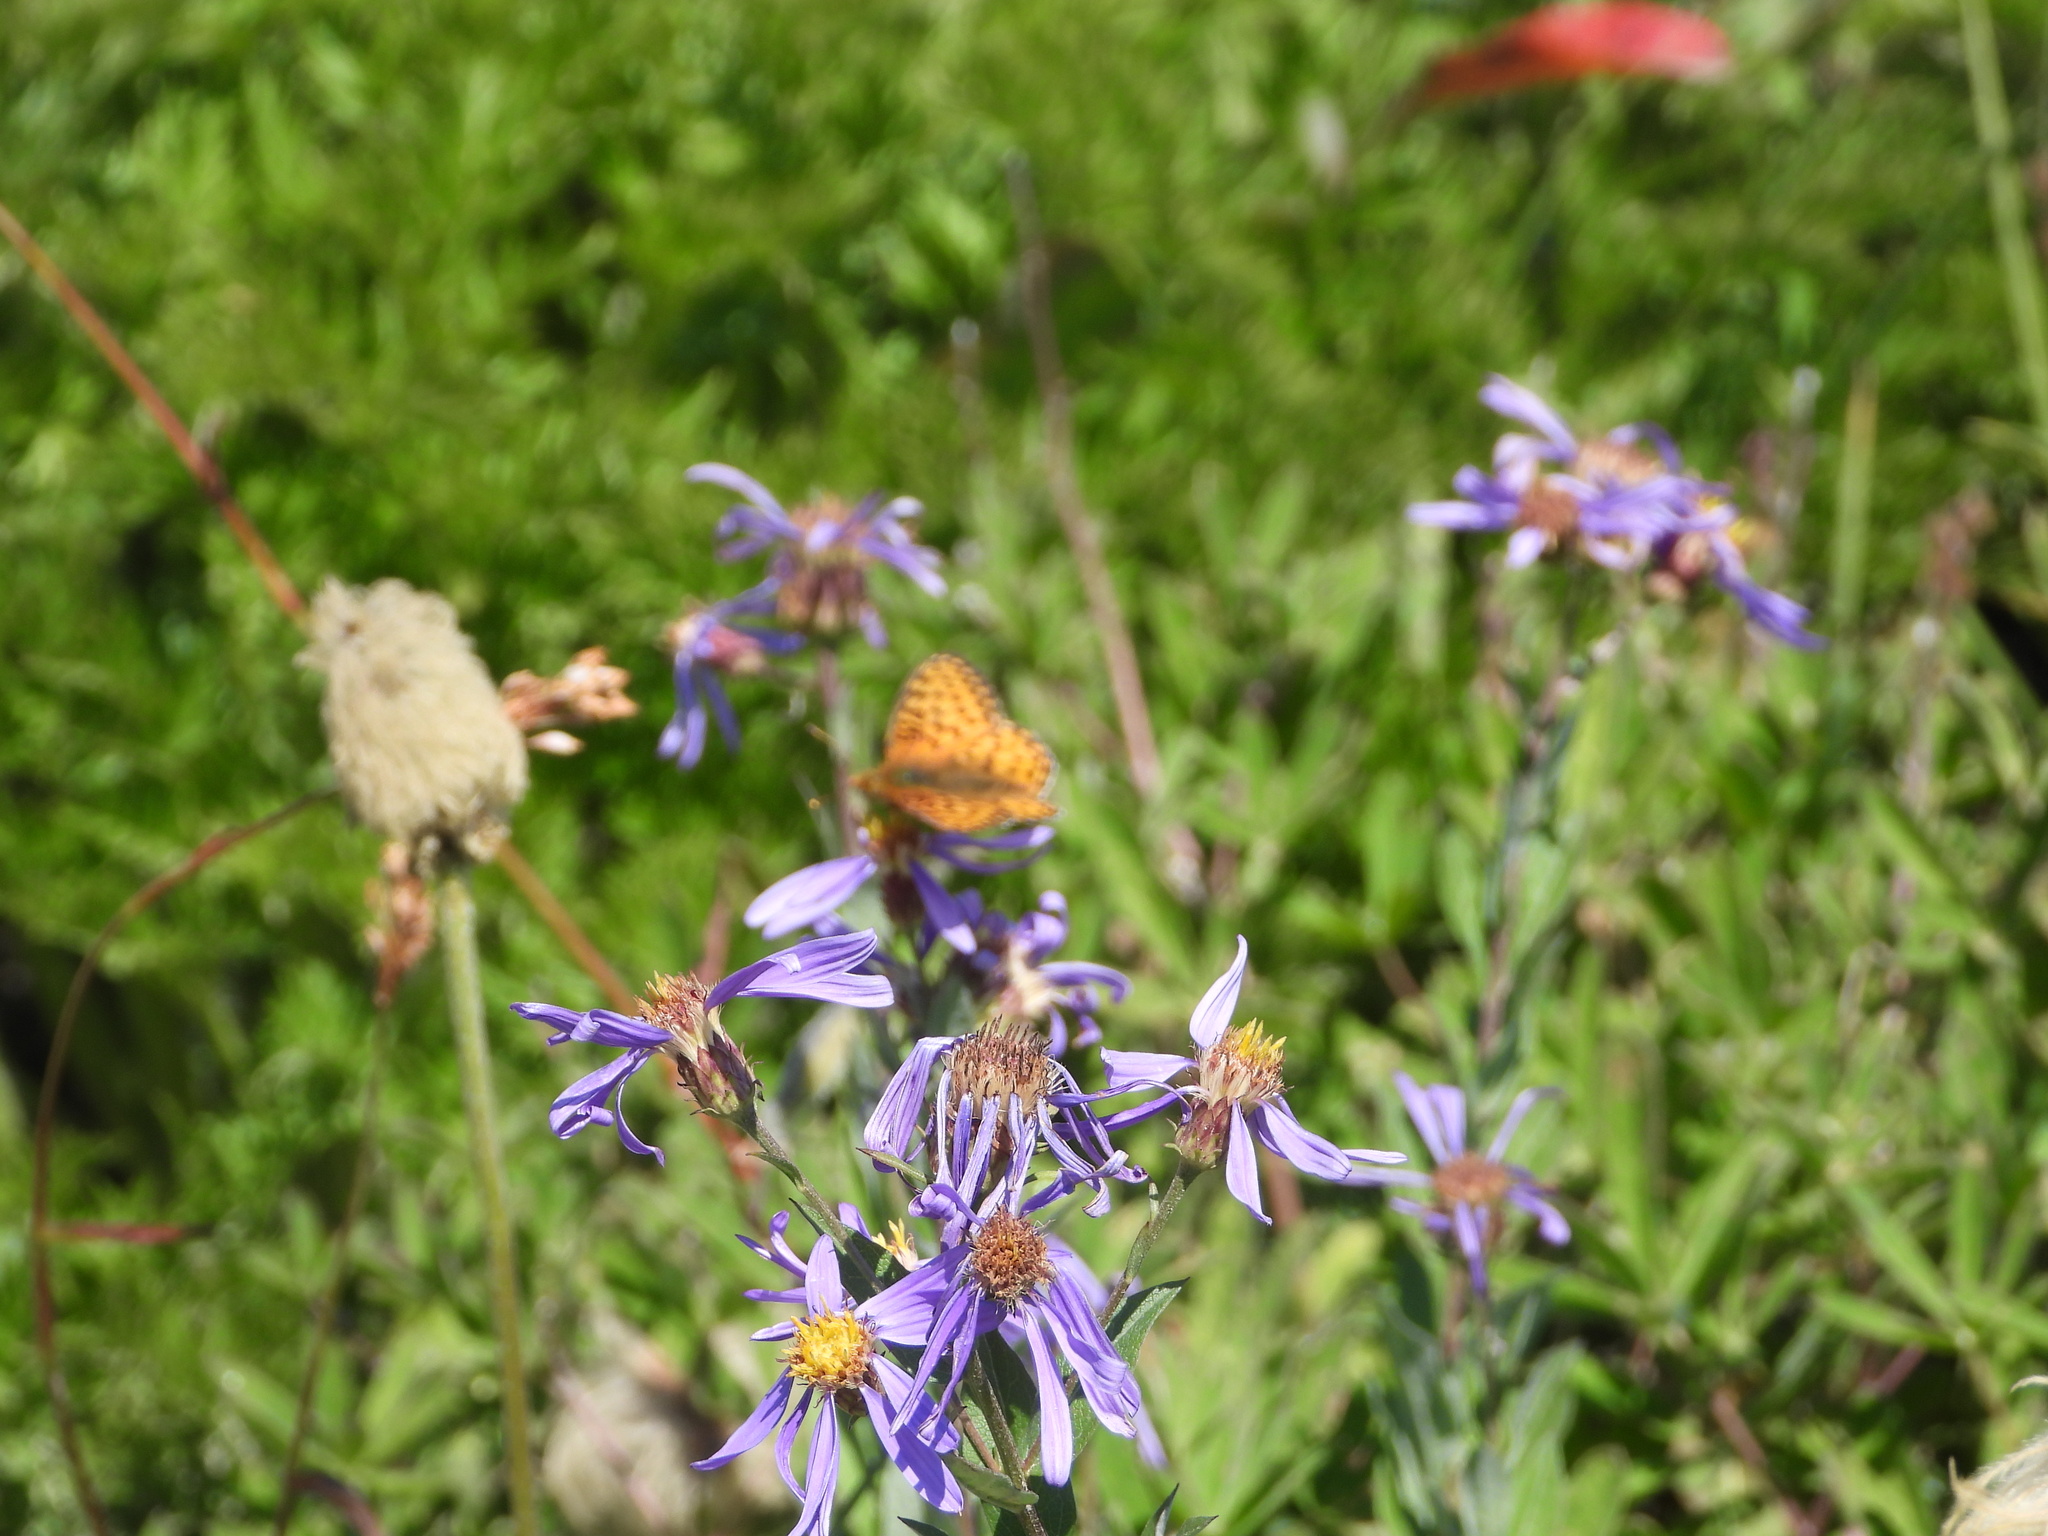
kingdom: Plantae
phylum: Tracheophyta
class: Magnoliopsida
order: Asterales
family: Asteraceae
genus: Eucephalus
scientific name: Eucephalus ledophyllus
